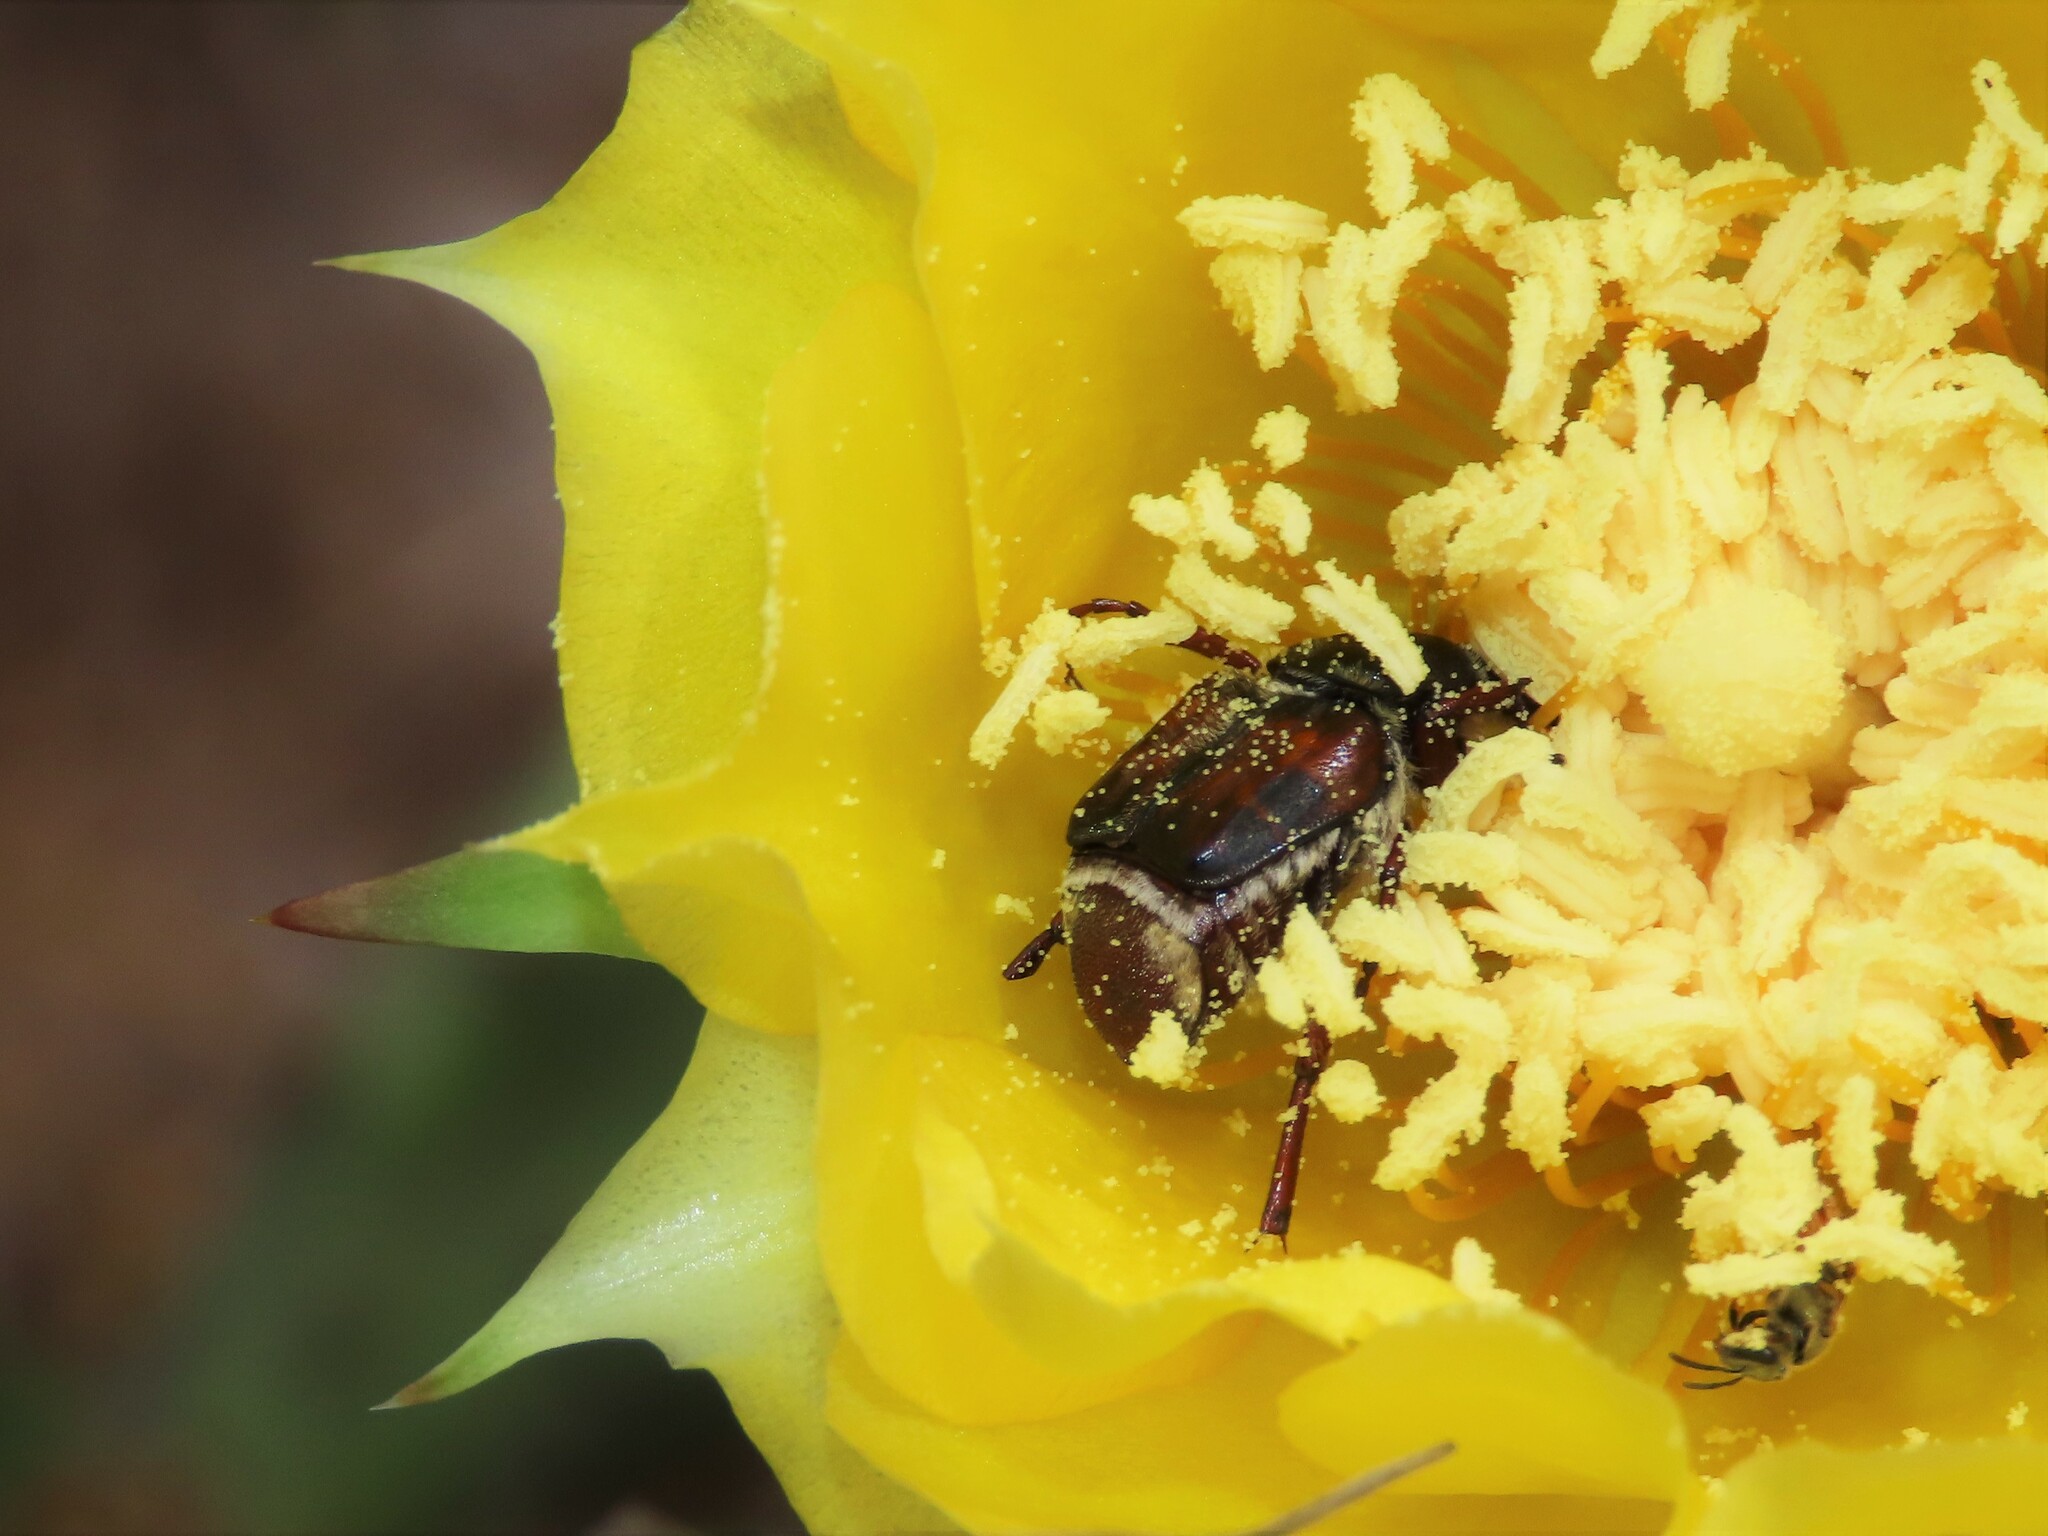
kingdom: Animalia
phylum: Arthropoda
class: Insecta
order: Coleoptera
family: Scarabaeidae
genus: Trichiotinus
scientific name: Trichiotinus piger
